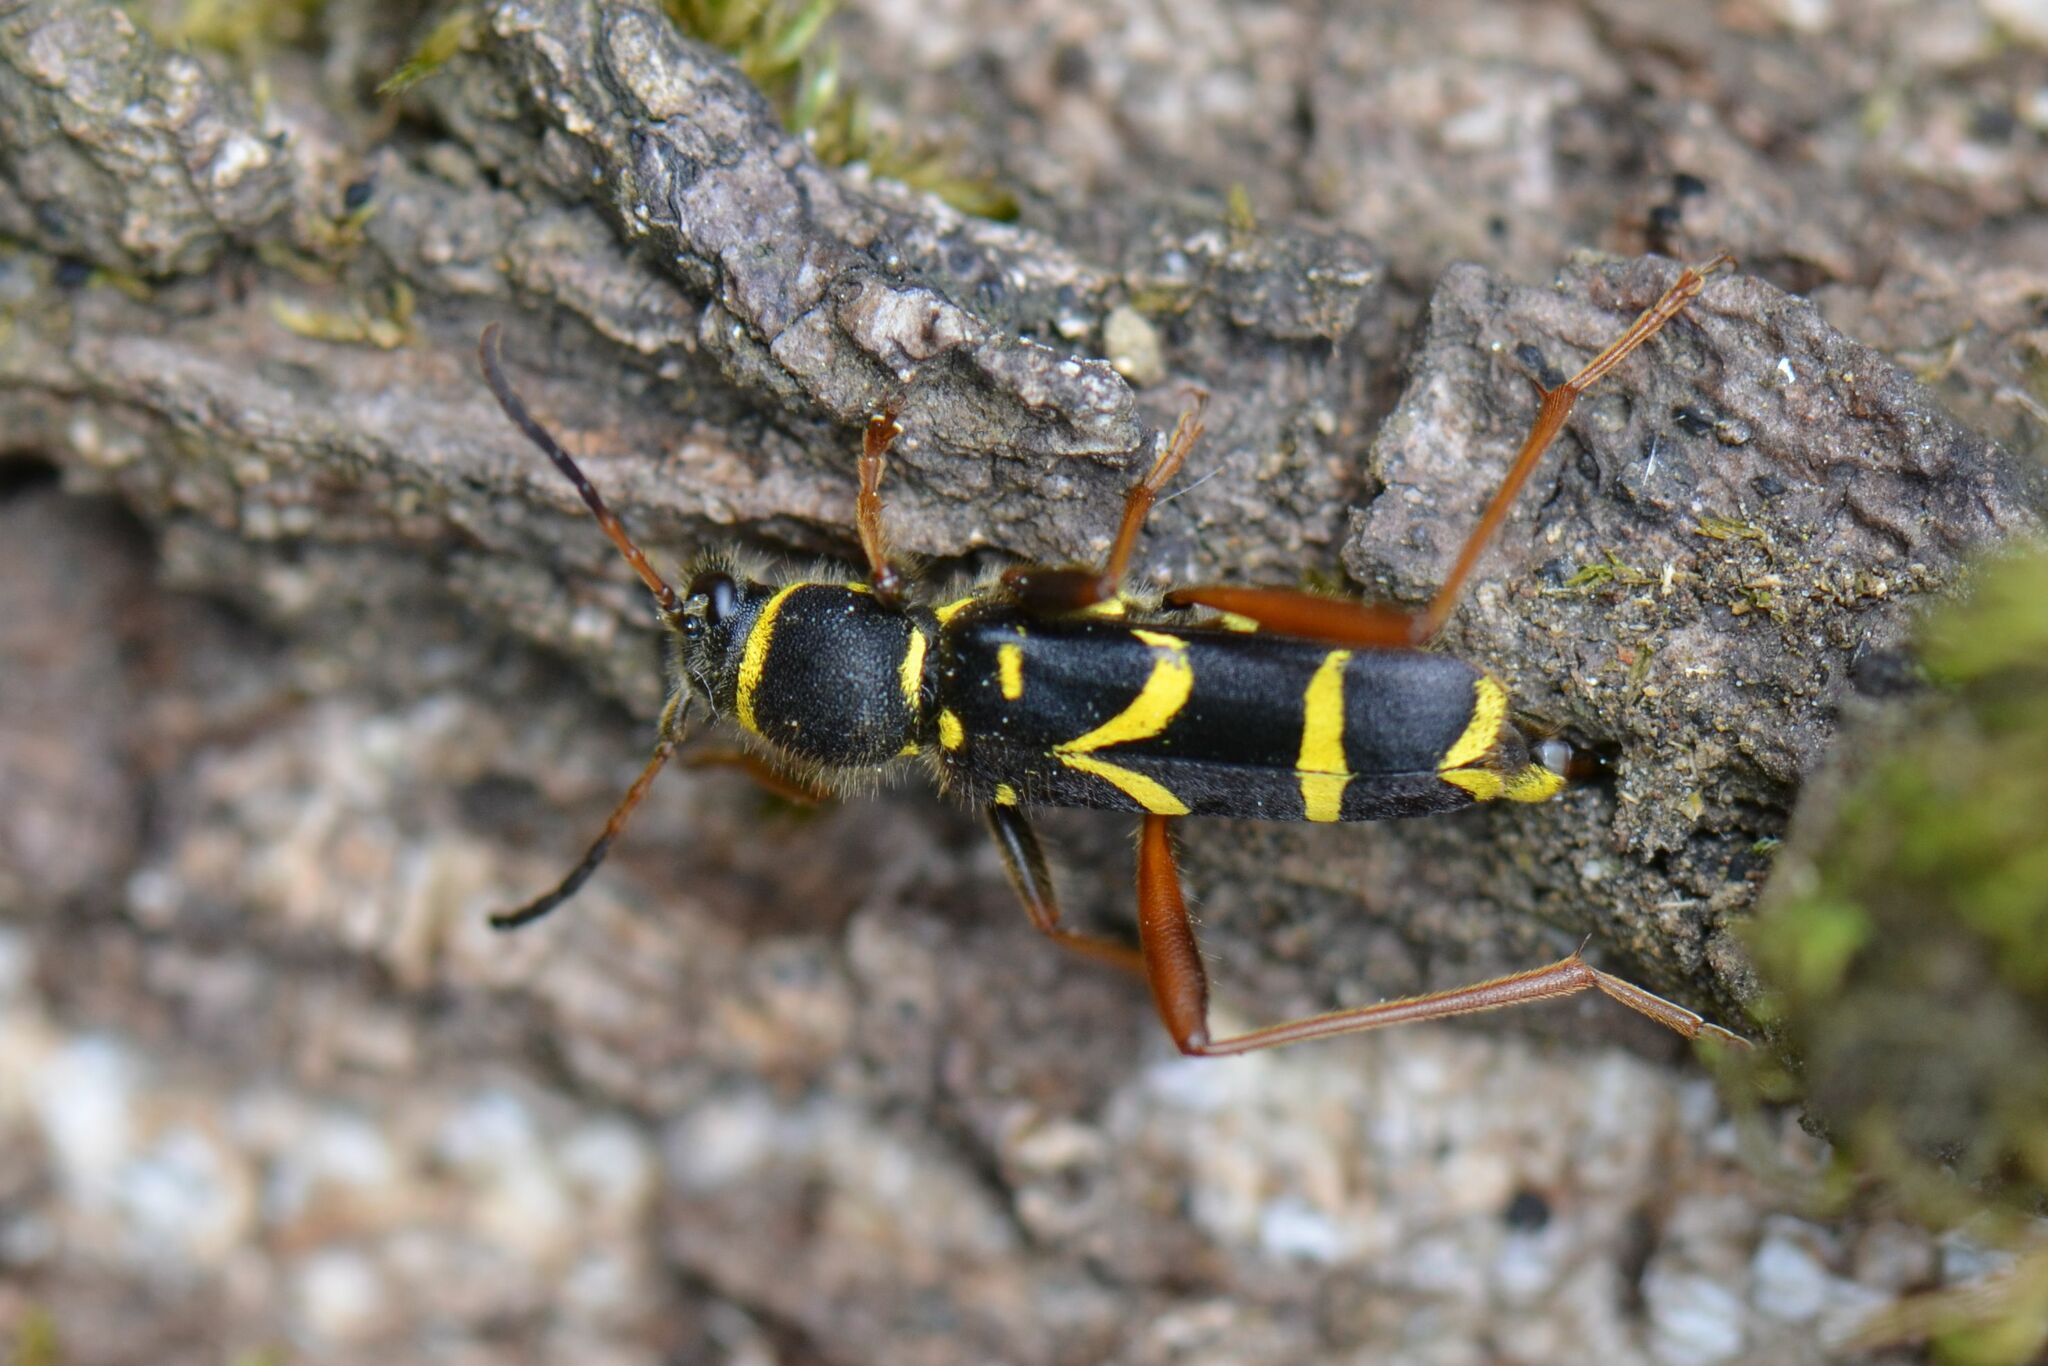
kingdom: Animalia
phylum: Arthropoda
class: Insecta
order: Coleoptera
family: Cerambycidae
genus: Clytus
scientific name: Clytus arietis
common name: Wasp beetle
